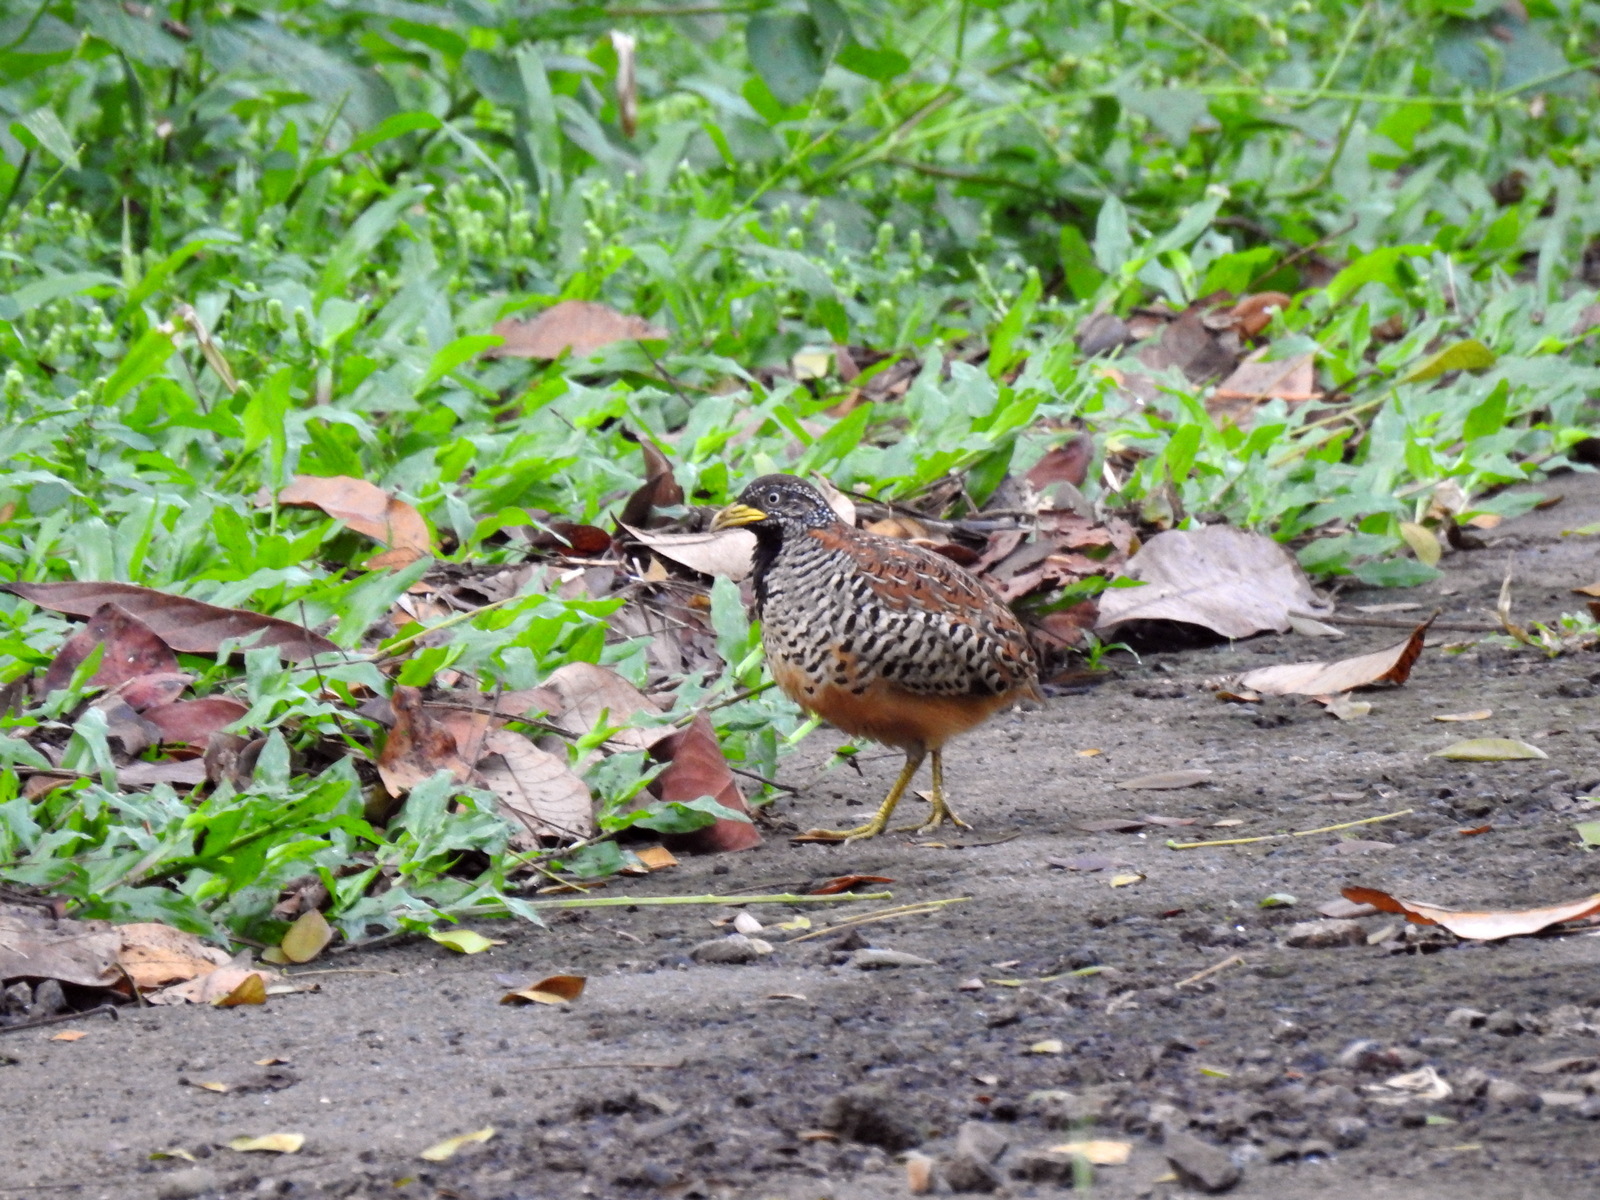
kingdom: Animalia
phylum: Chordata
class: Aves
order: Charadriiformes
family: Turnicidae
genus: Turnix
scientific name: Turnix suscitator
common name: Barred buttonquail
